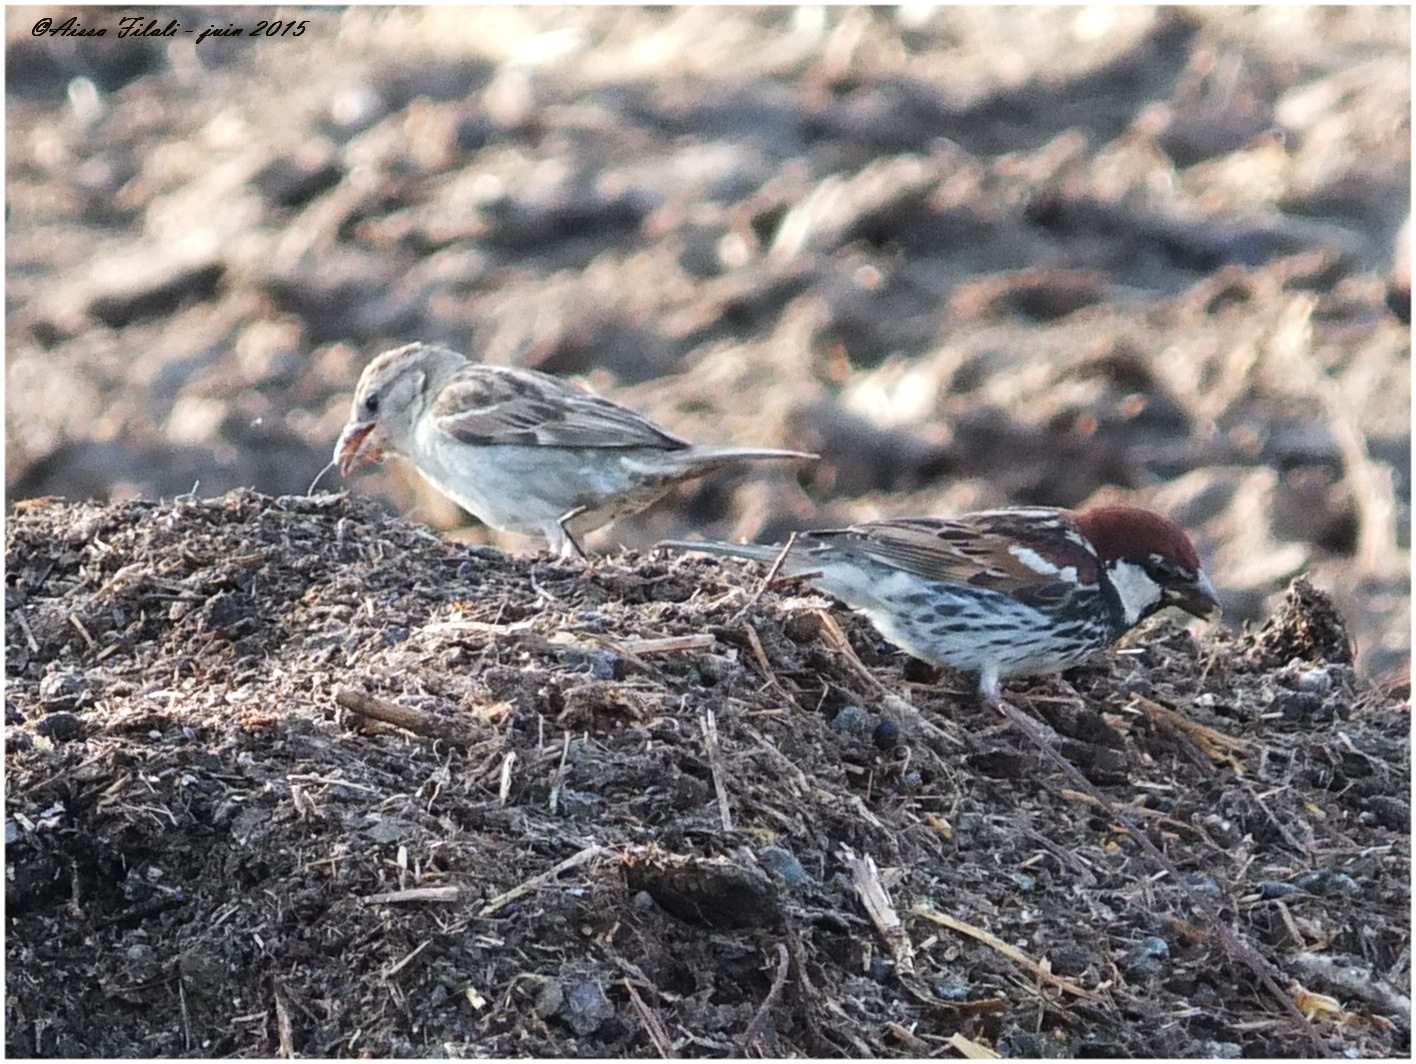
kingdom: Animalia
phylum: Chordata
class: Aves
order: Passeriformes
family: Passeridae
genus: Passer
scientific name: Passer hispaniolensis
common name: Spanish sparrow
